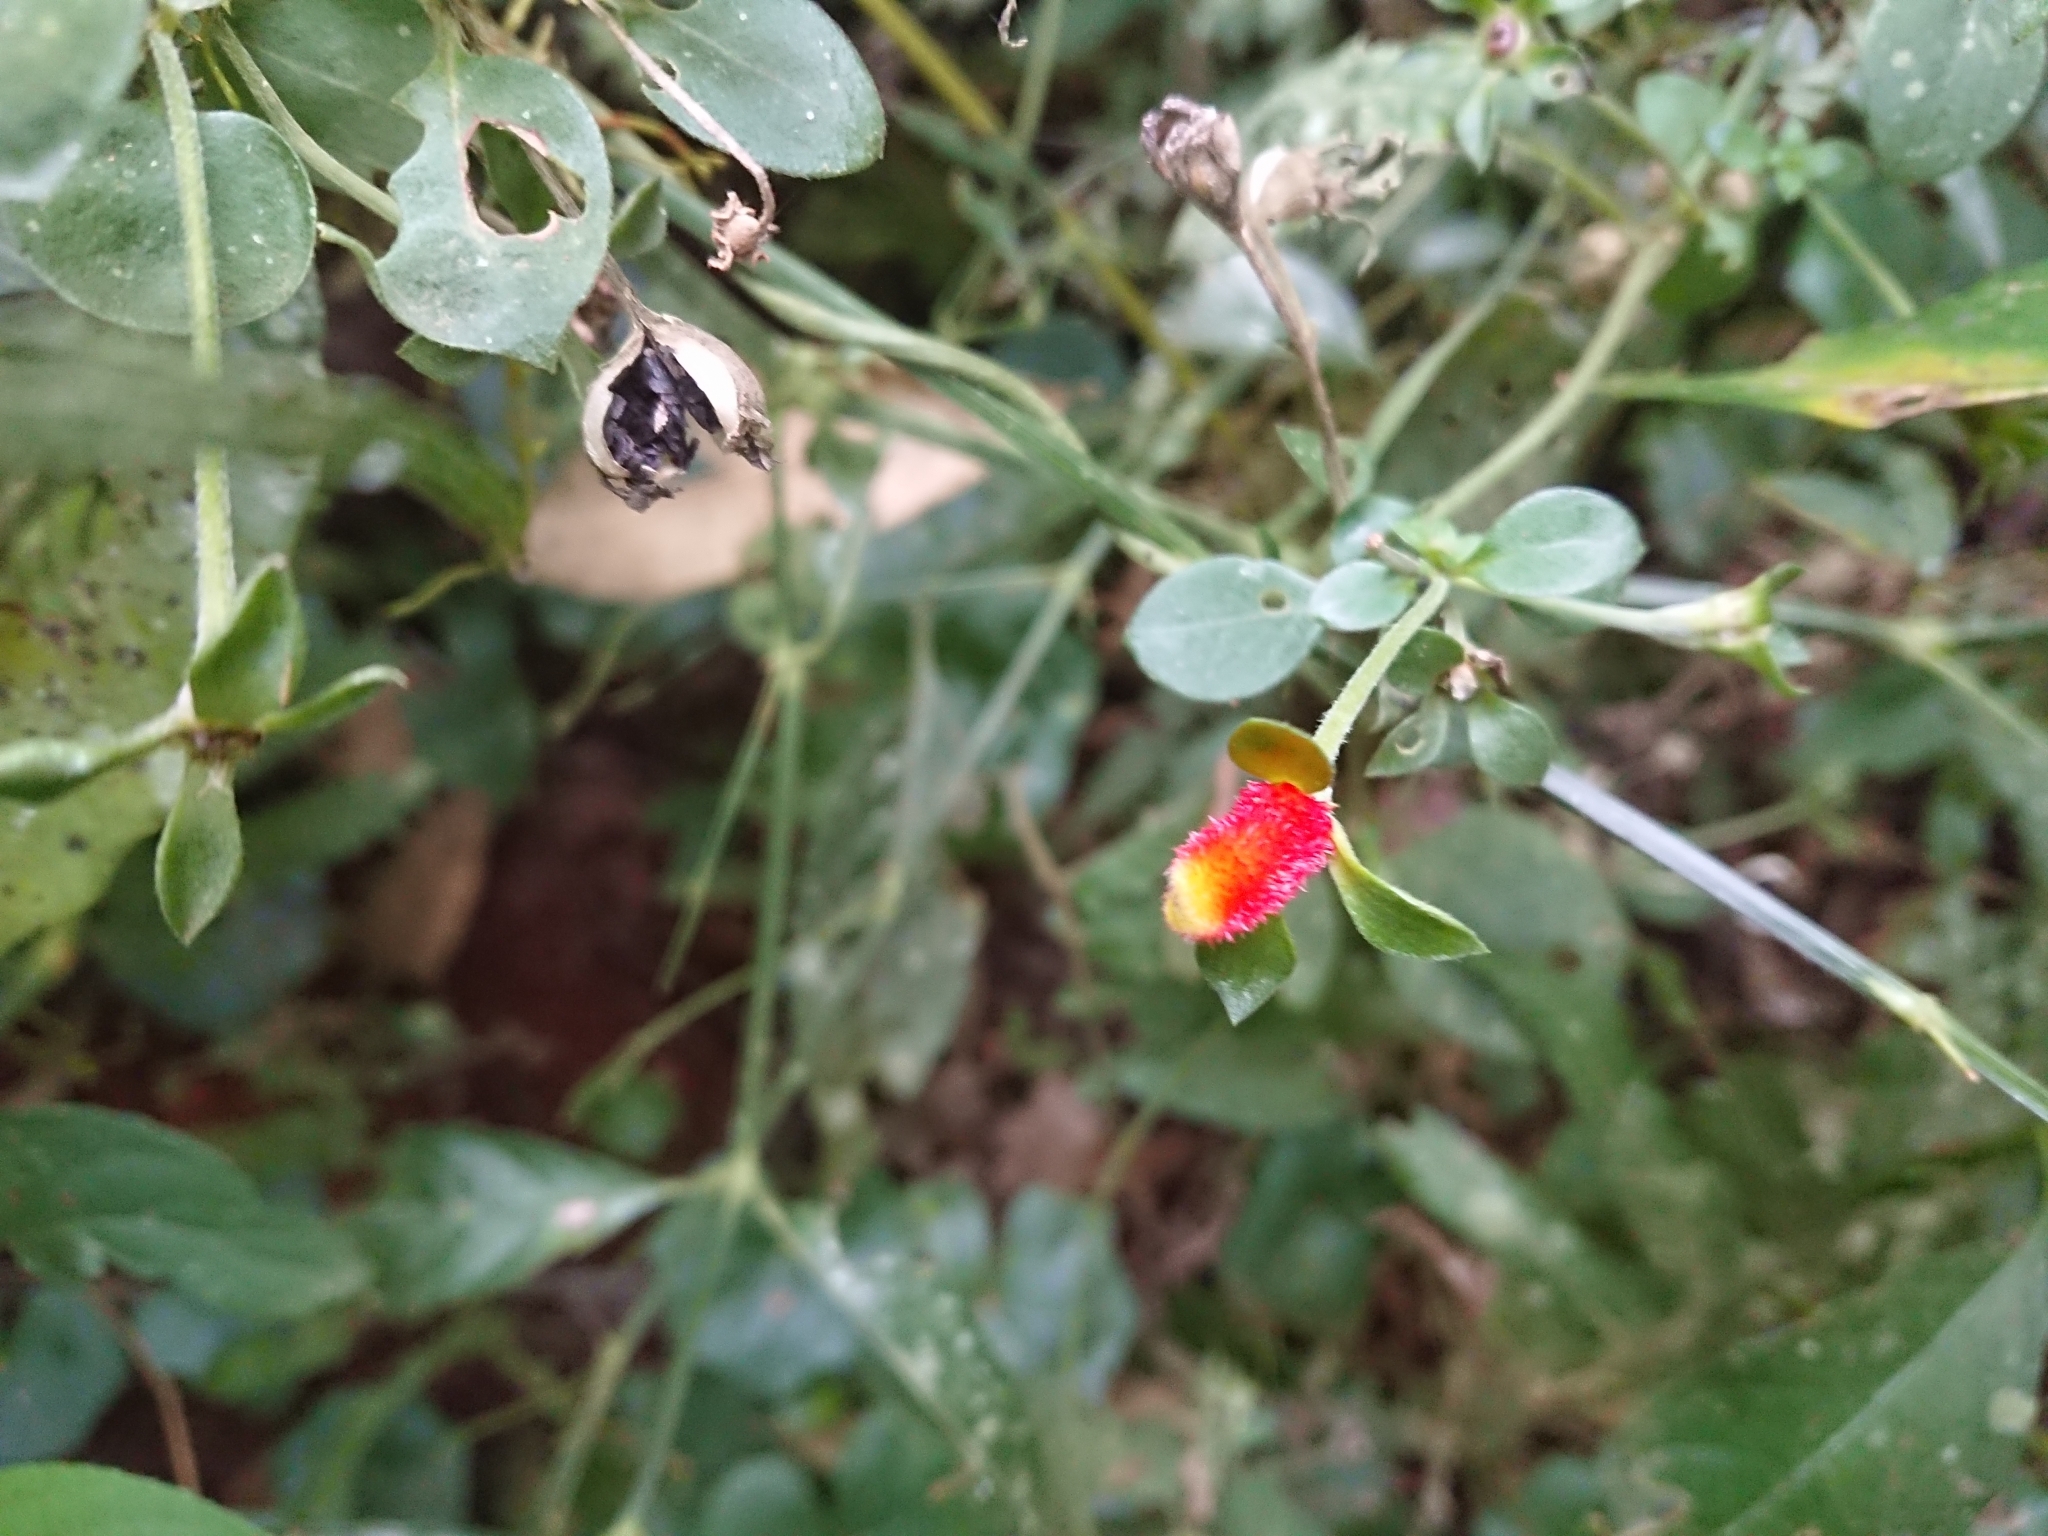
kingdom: Plantae
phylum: Tracheophyta
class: Magnoliopsida
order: Gentianales
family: Rubiaceae
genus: Manettia
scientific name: Manettia paraguariensis
